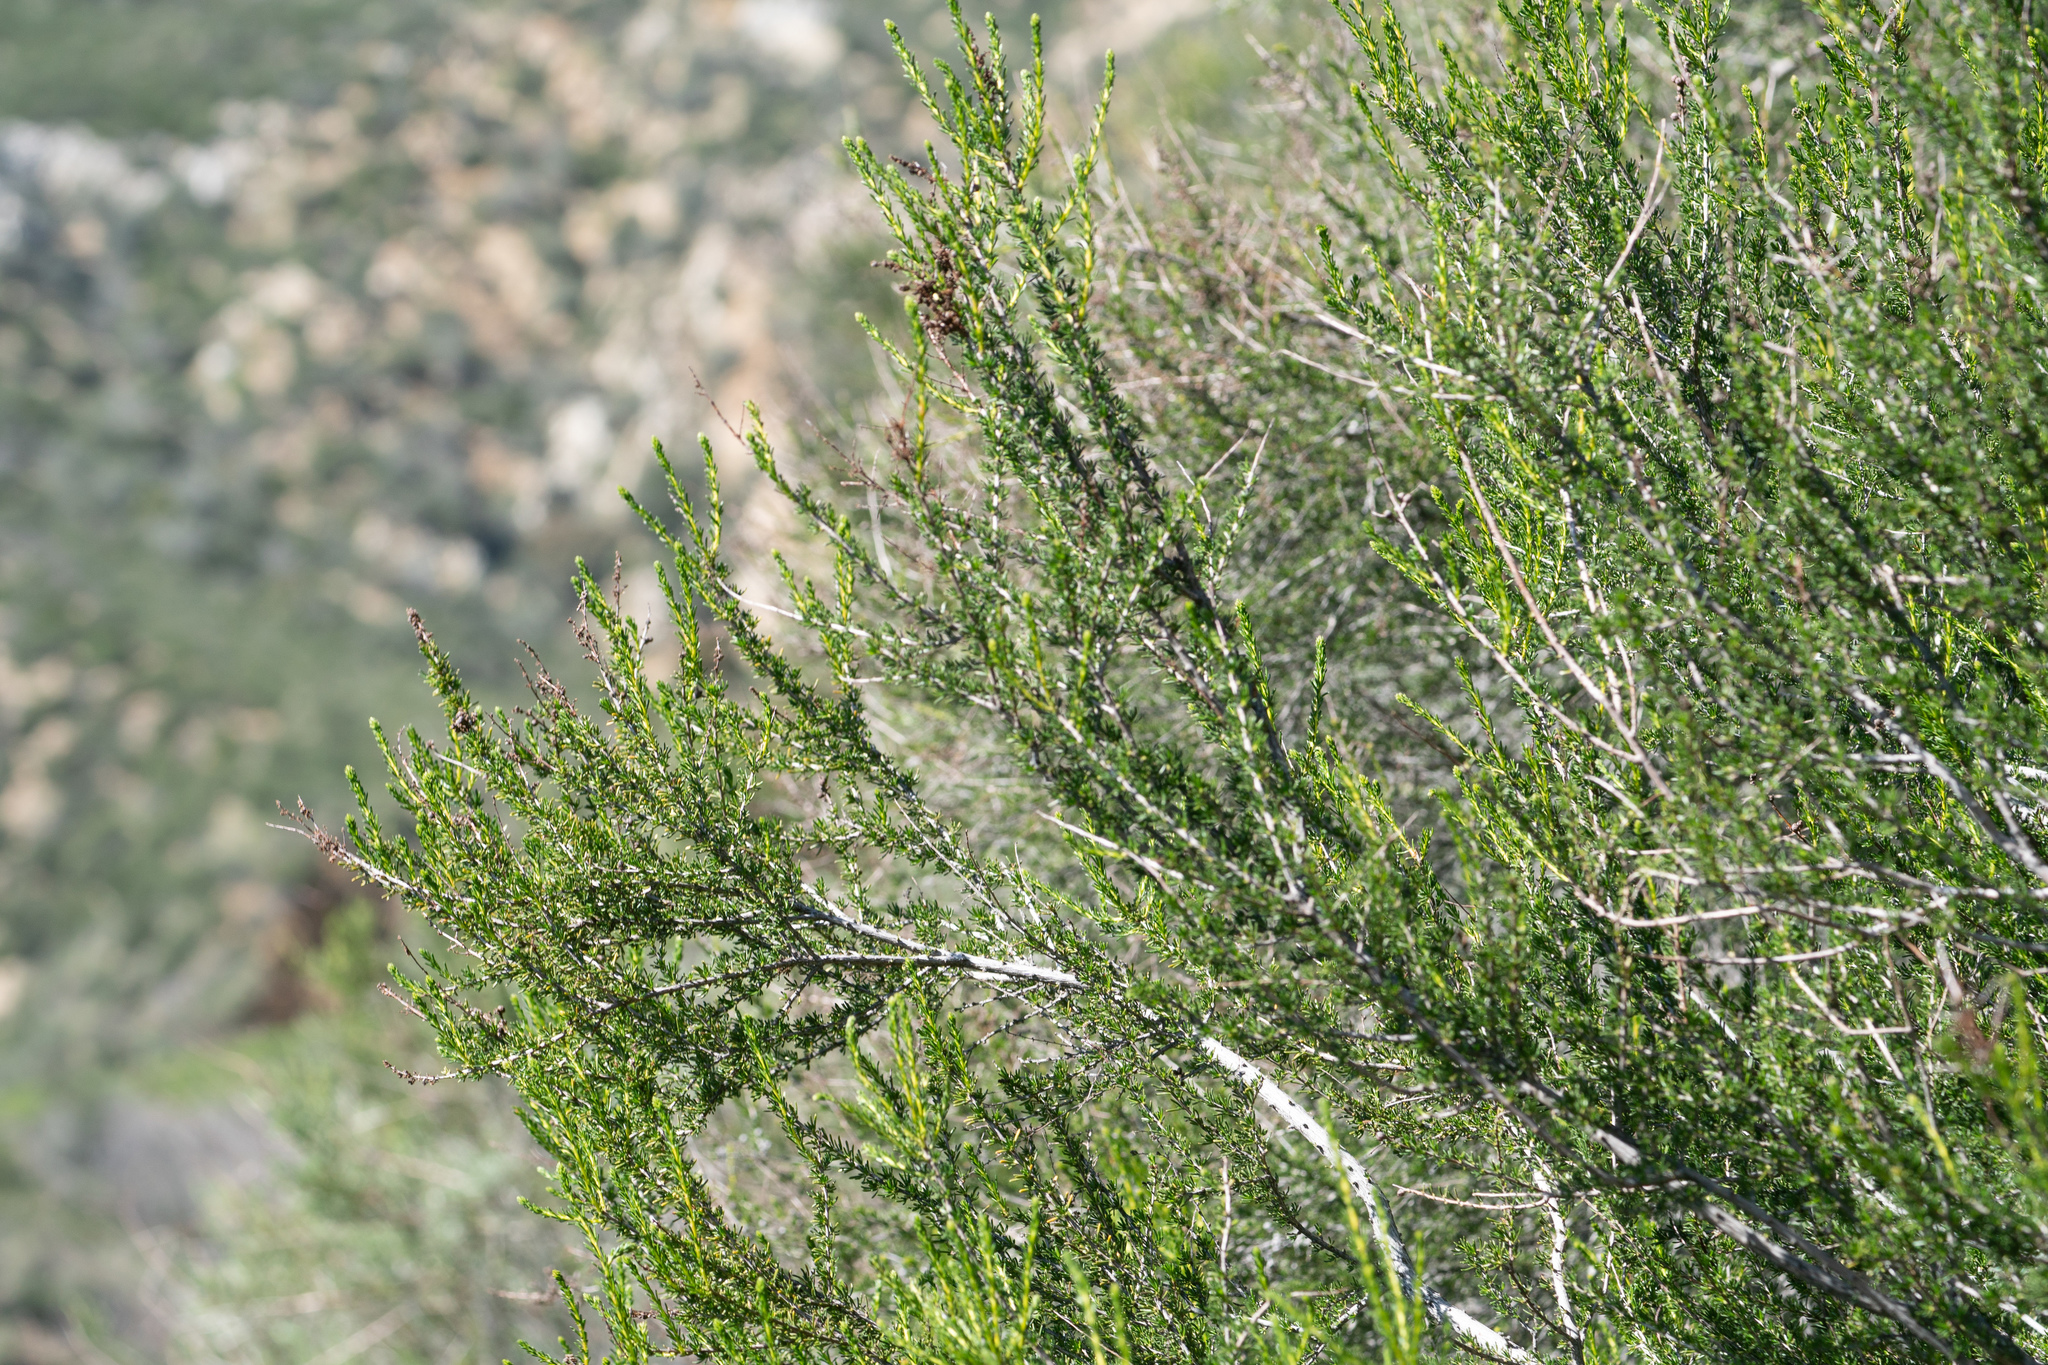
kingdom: Plantae
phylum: Tracheophyta
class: Magnoliopsida
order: Rosales
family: Rosaceae
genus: Adenostoma
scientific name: Adenostoma fasciculatum
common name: Chamise
